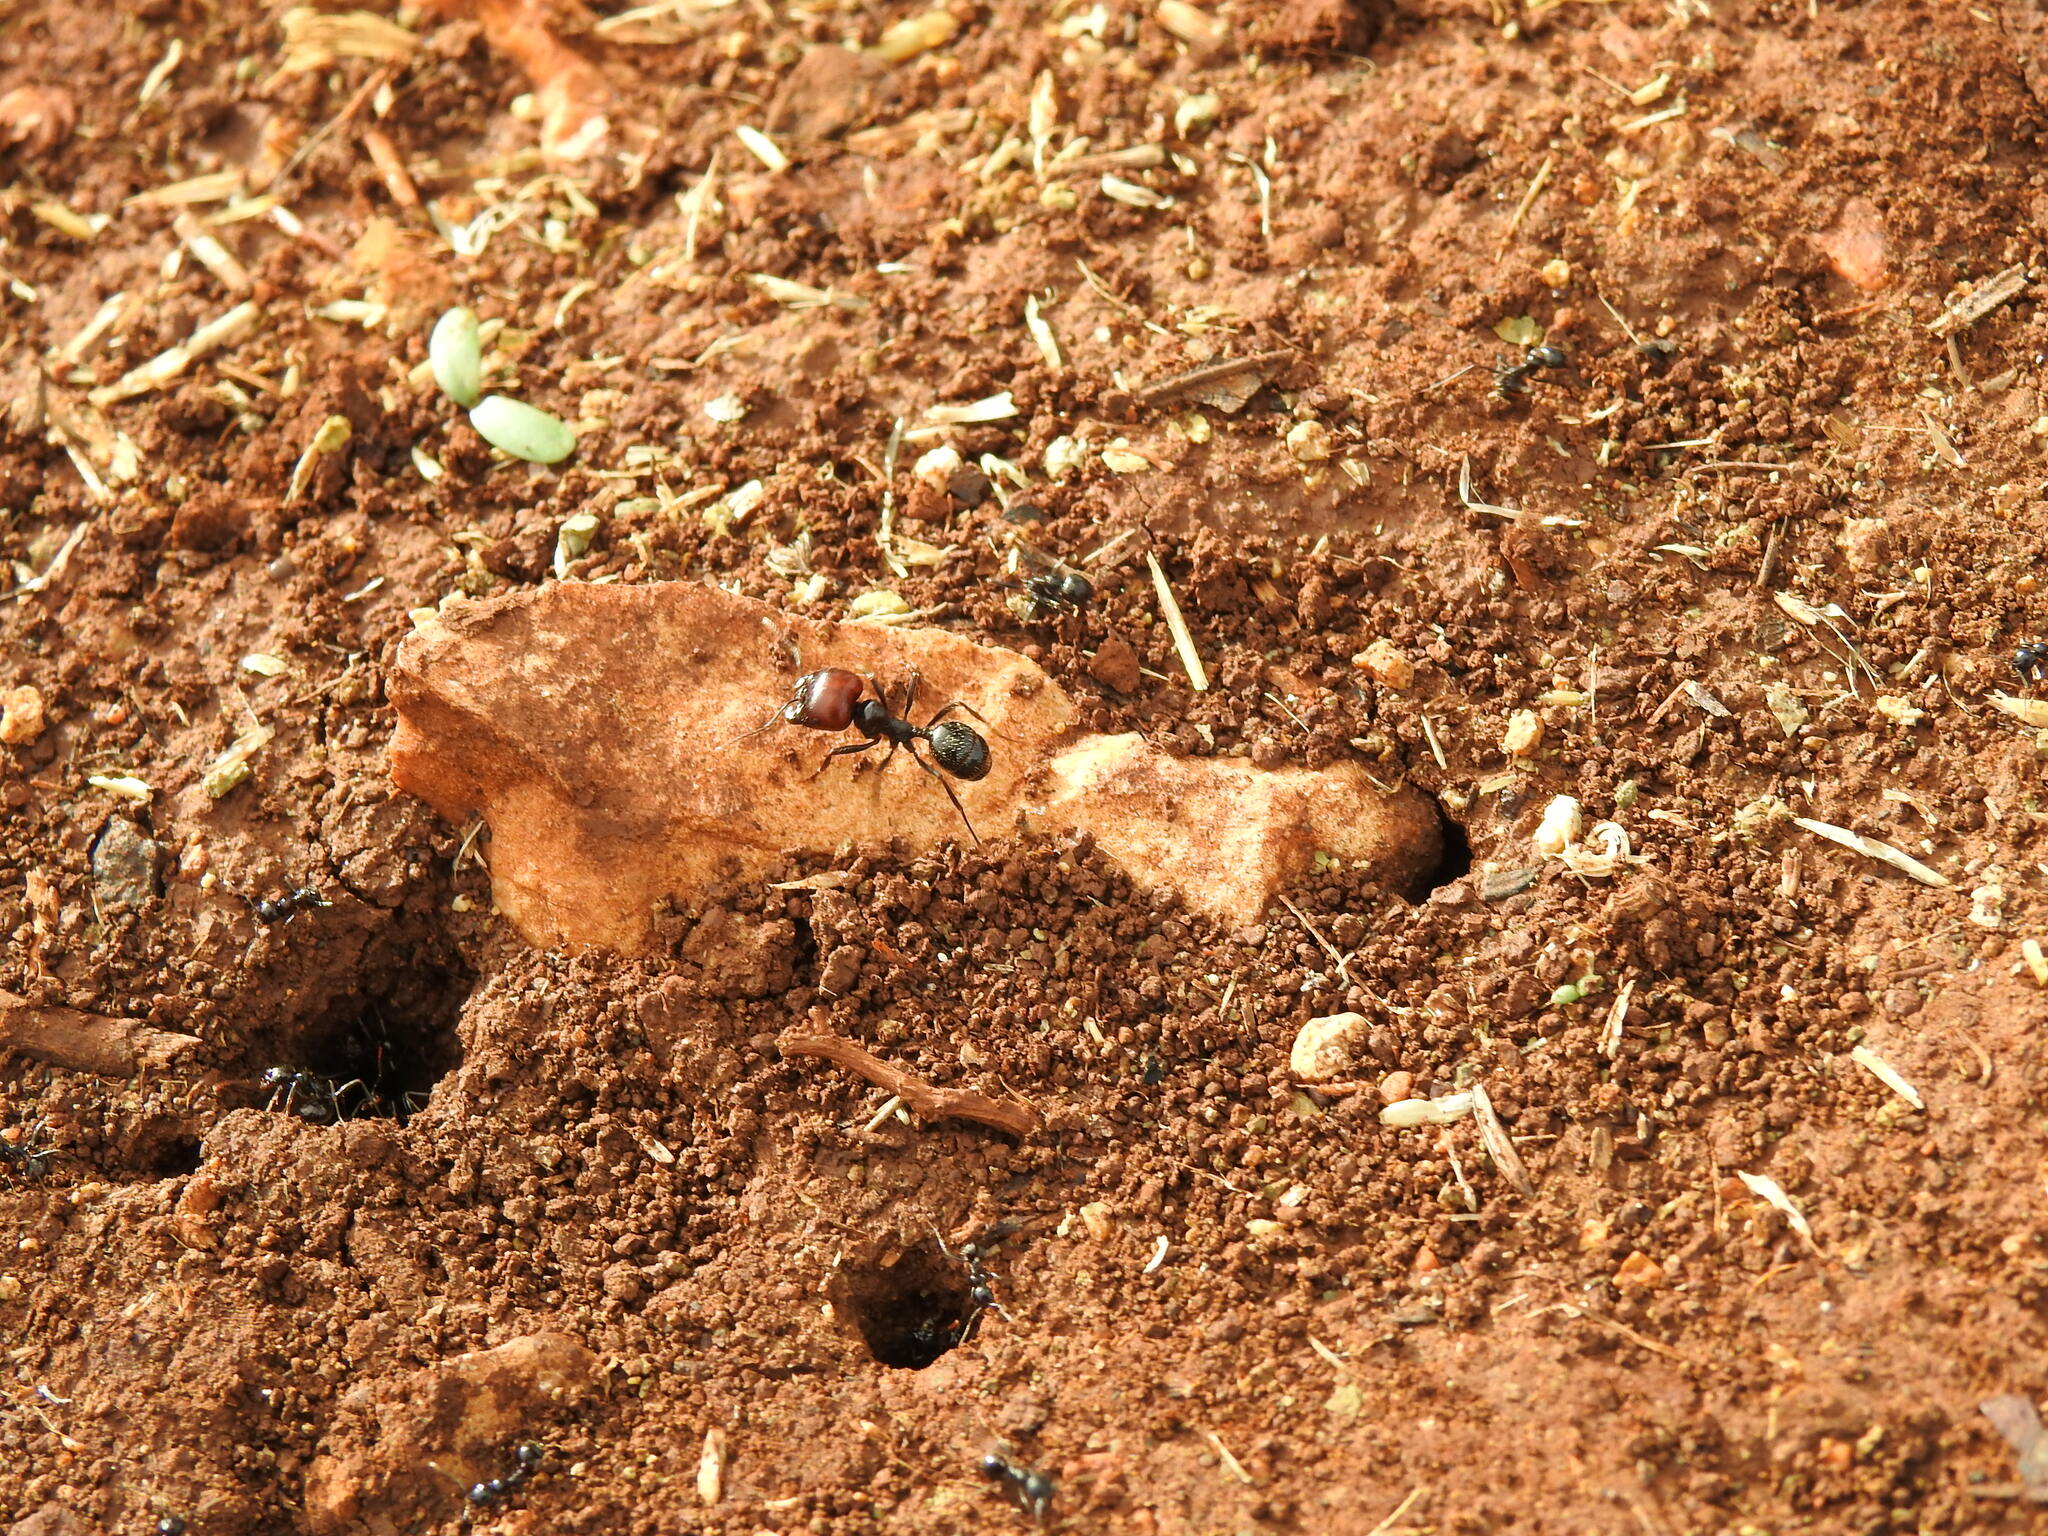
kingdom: Animalia
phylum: Arthropoda
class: Insecta
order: Hymenoptera
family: Formicidae
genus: Messor
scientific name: Messor barbarus
